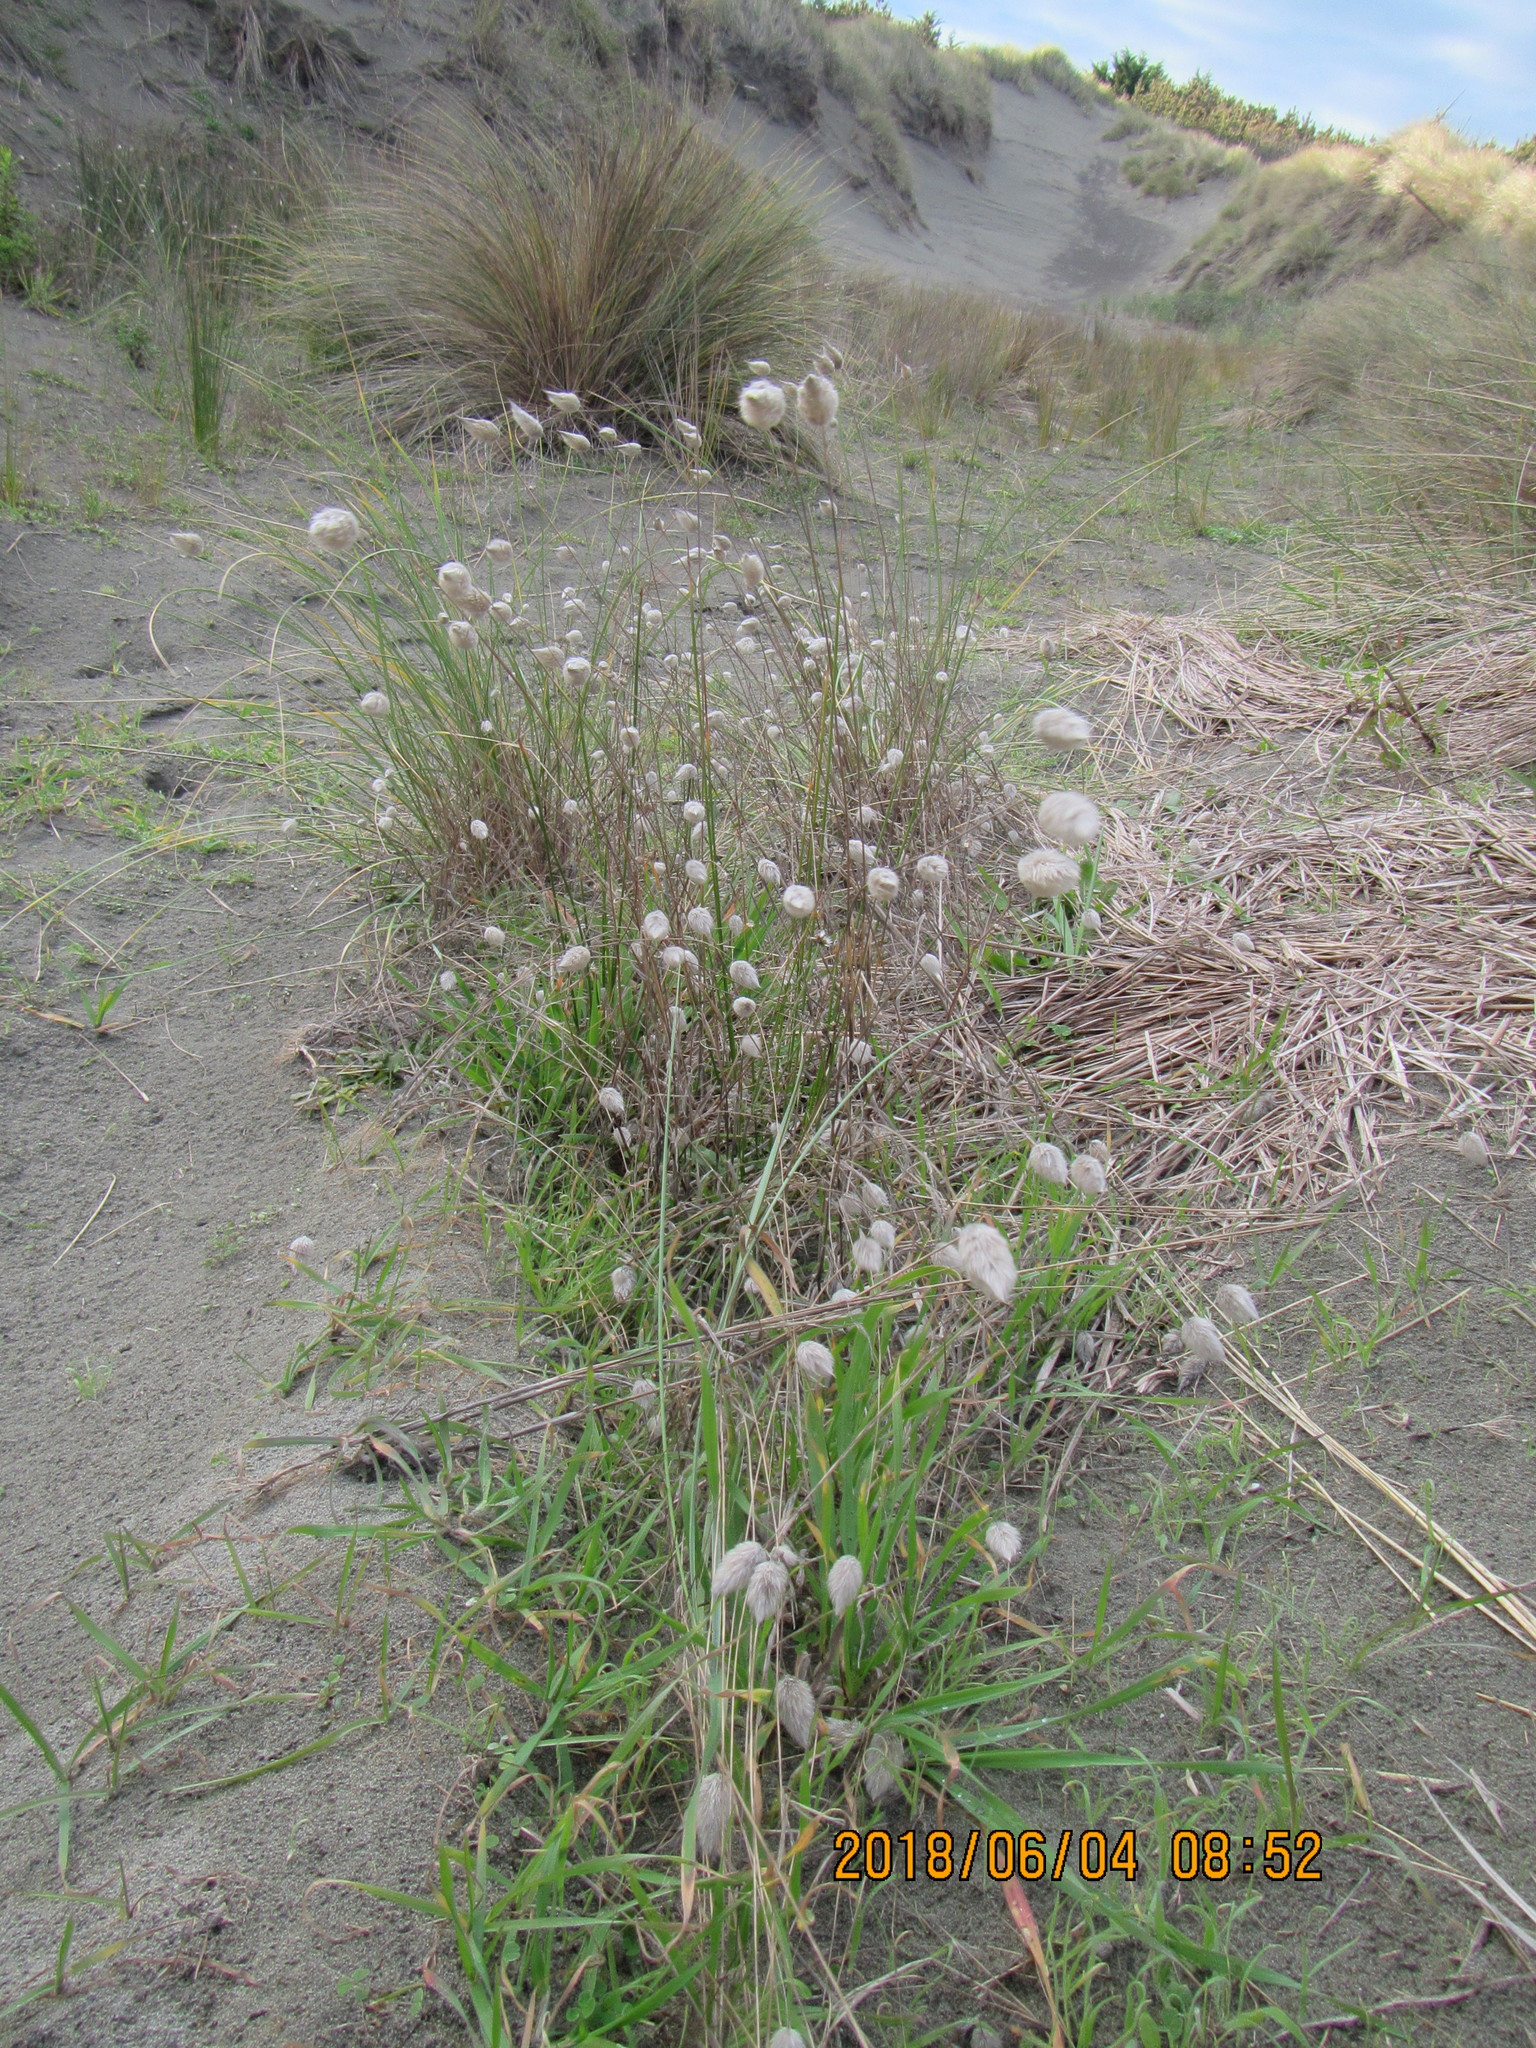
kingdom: Plantae
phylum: Tracheophyta
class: Liliopsida
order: Poales
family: Poaceae
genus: Lagurus
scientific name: Lagurus ovatus
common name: Hare's-tail
